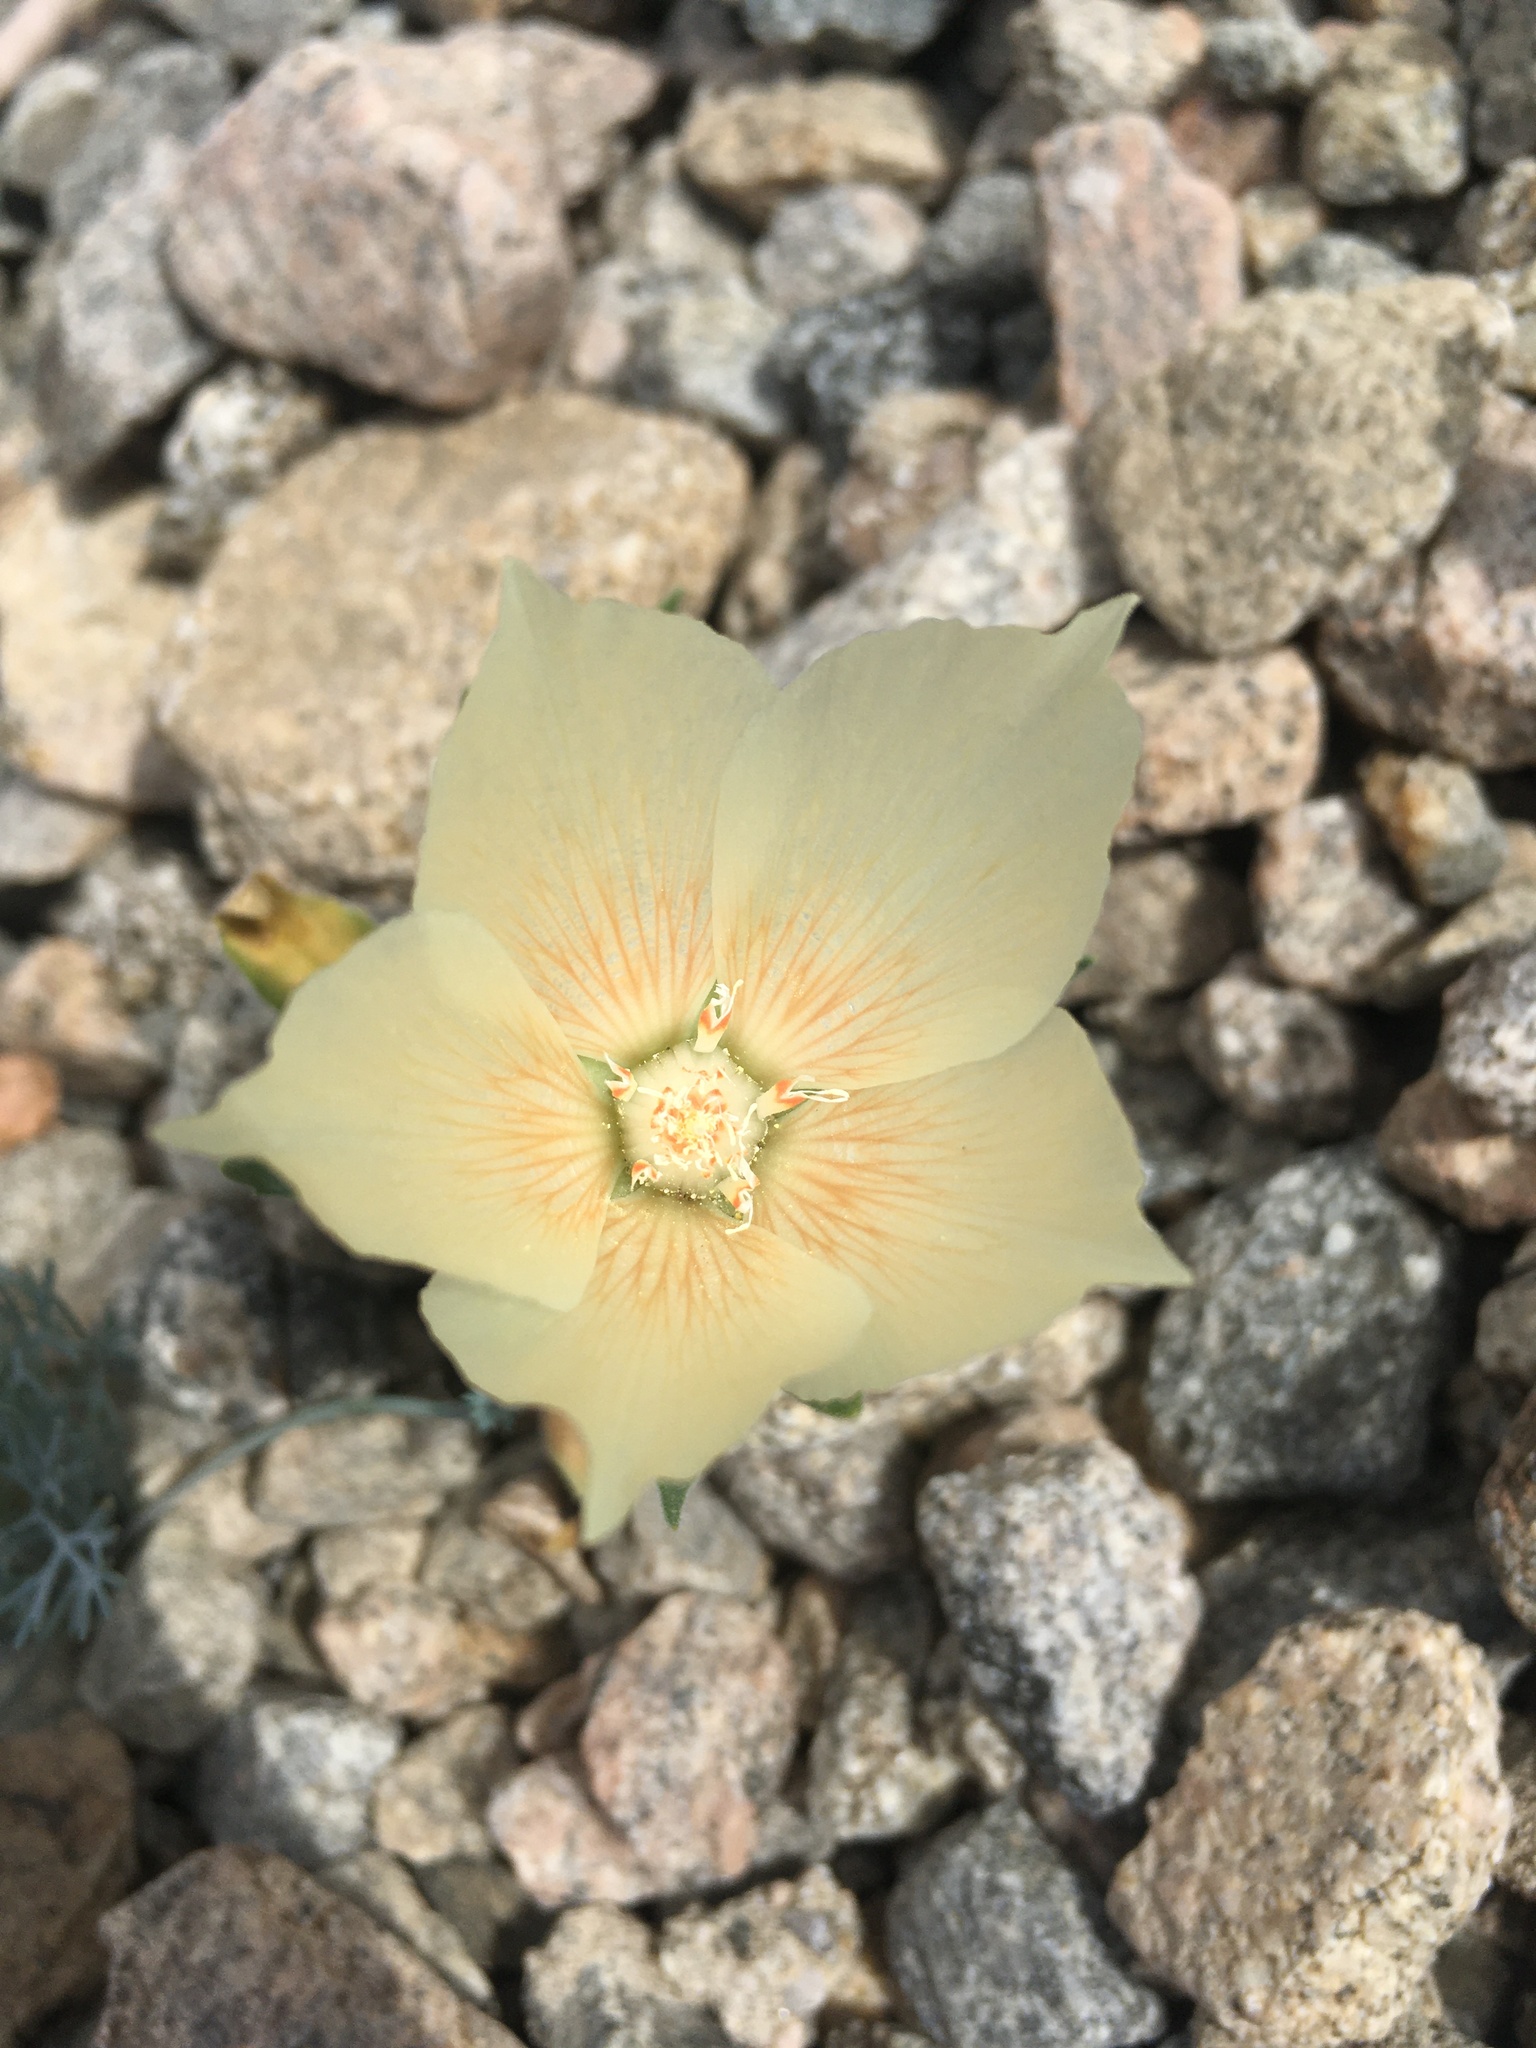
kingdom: Plantae
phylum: Tracheophyta
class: Magnoliopsida
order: Cornales
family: Loasaceae
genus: Mentzelia
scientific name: Mentzelia involucrata
